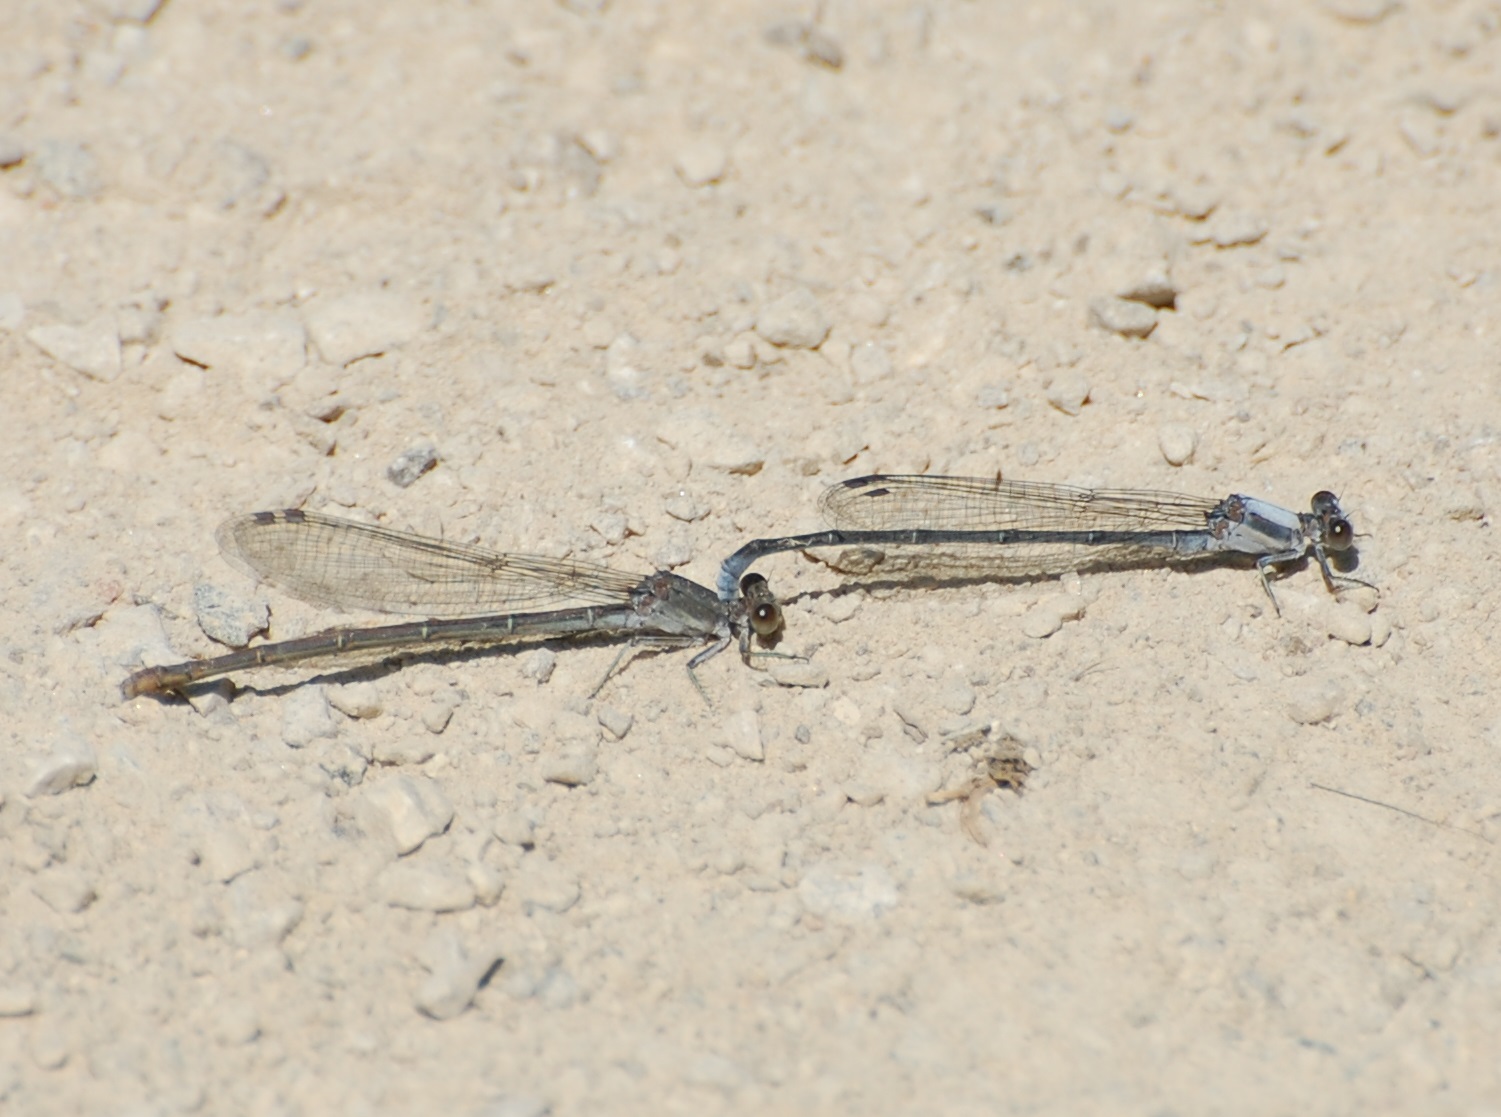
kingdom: Animalia
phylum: Arthropoda
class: Insecta
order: Odonata
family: Coenagrionidae
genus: Argia
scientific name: Argia moesta
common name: Powdered dancer
